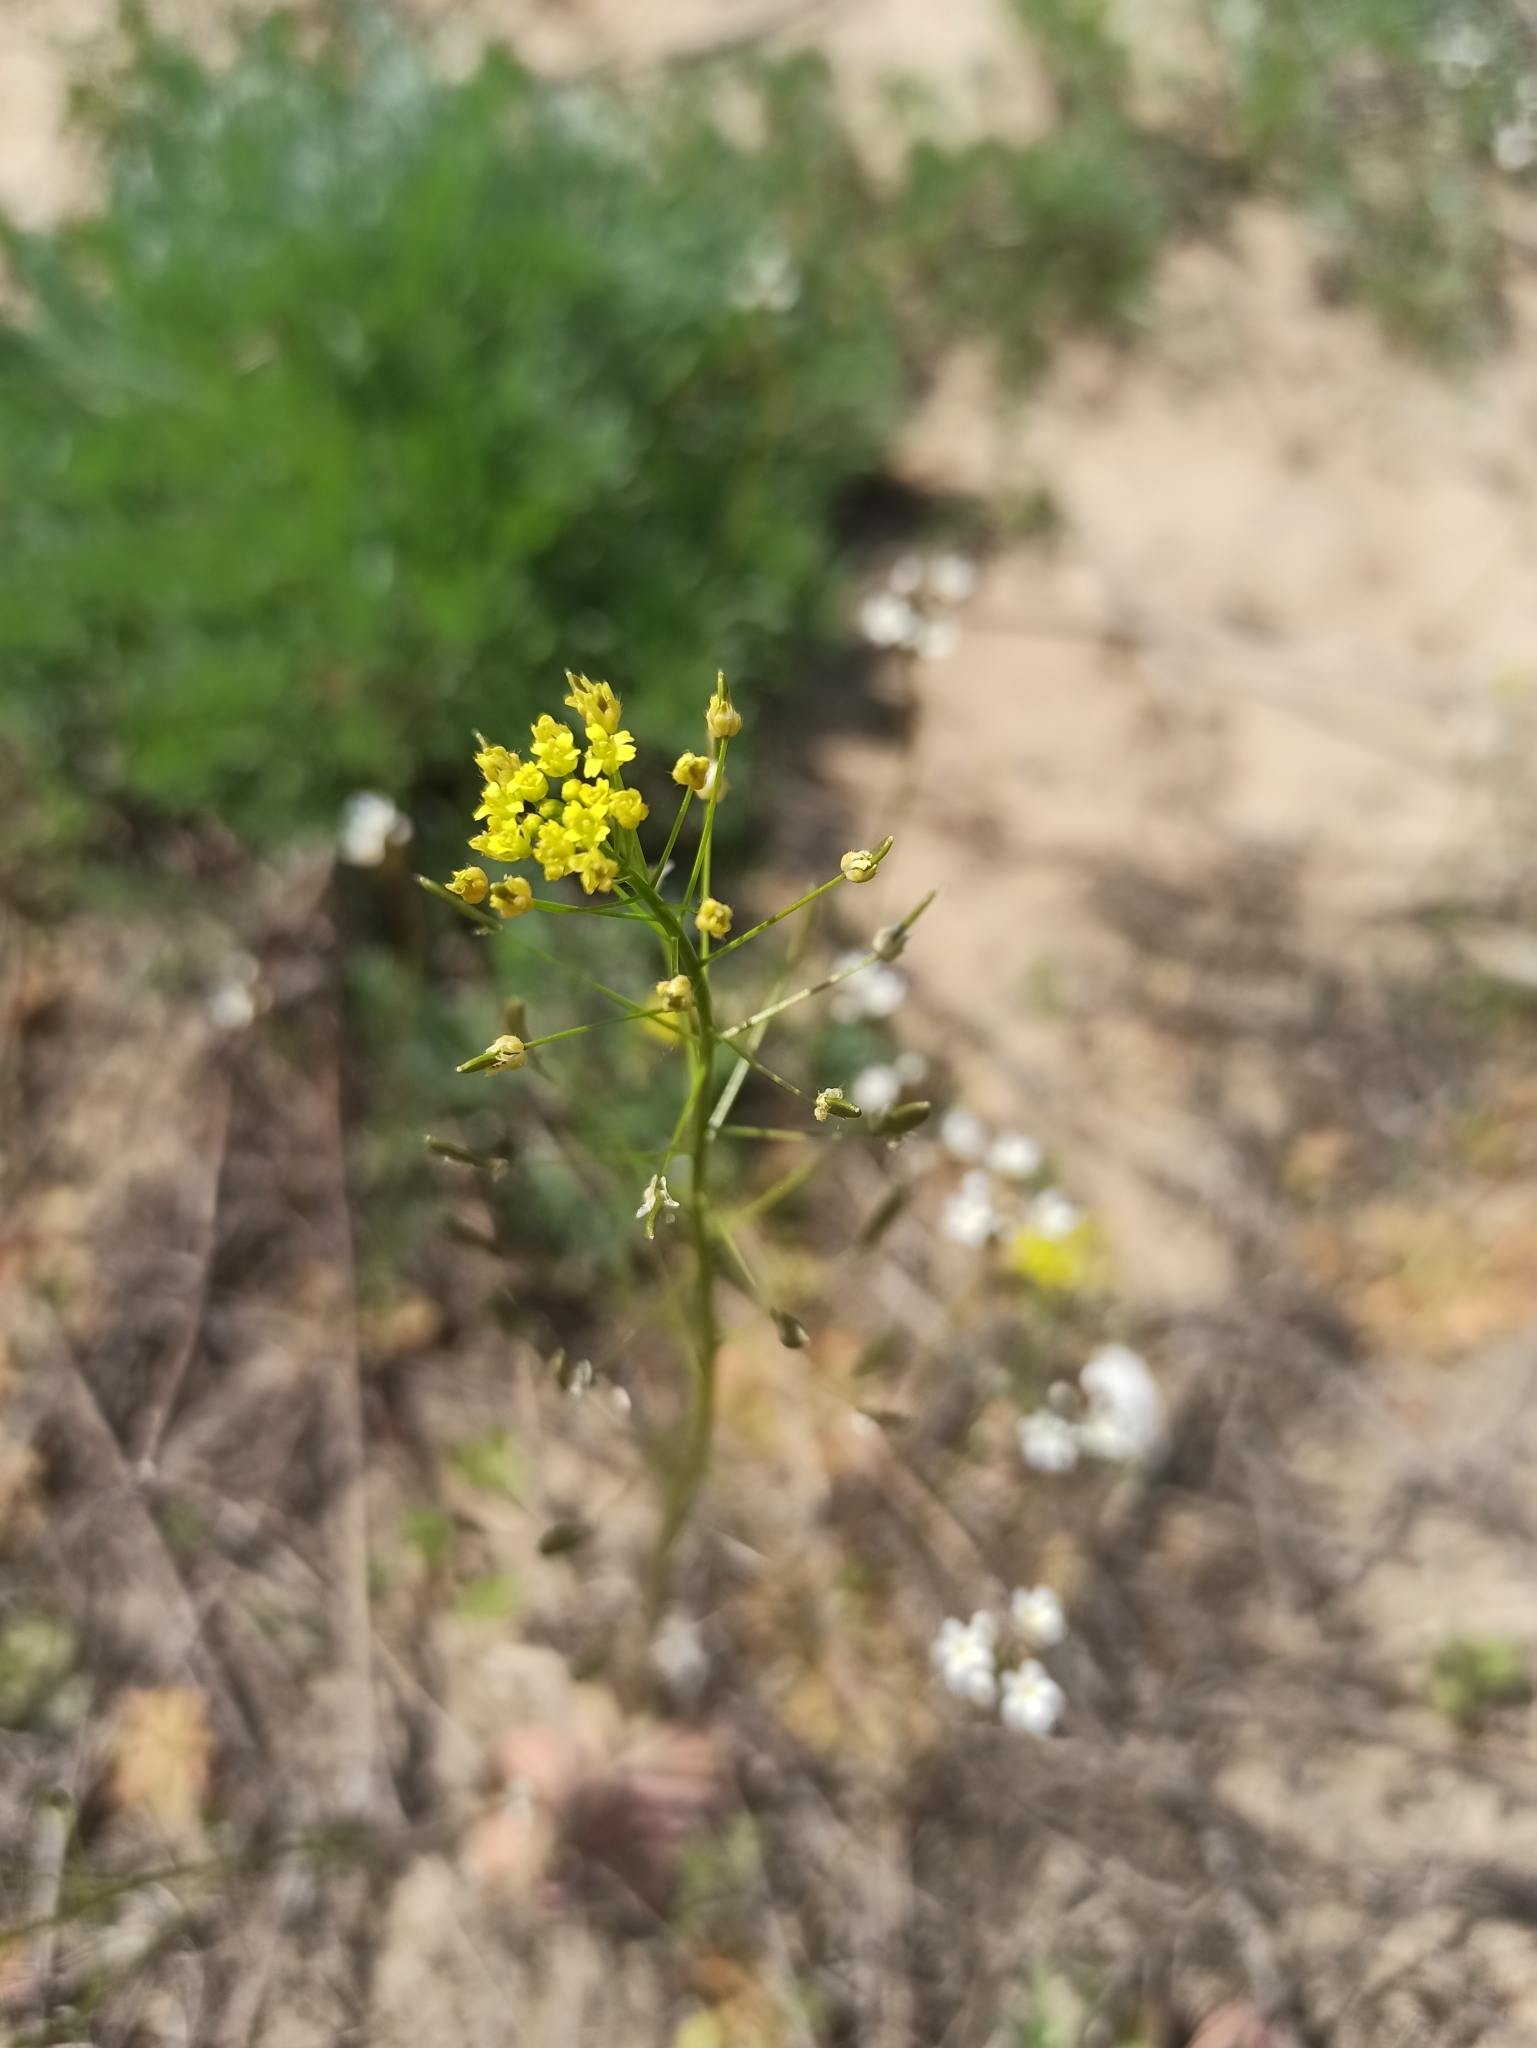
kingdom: Plantae
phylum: Tracheophyta
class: Magnoliopsida
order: Brassicales
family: Brassicaceae
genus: Draba
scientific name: Draba nemorosa
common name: Wood whitlow-grass
